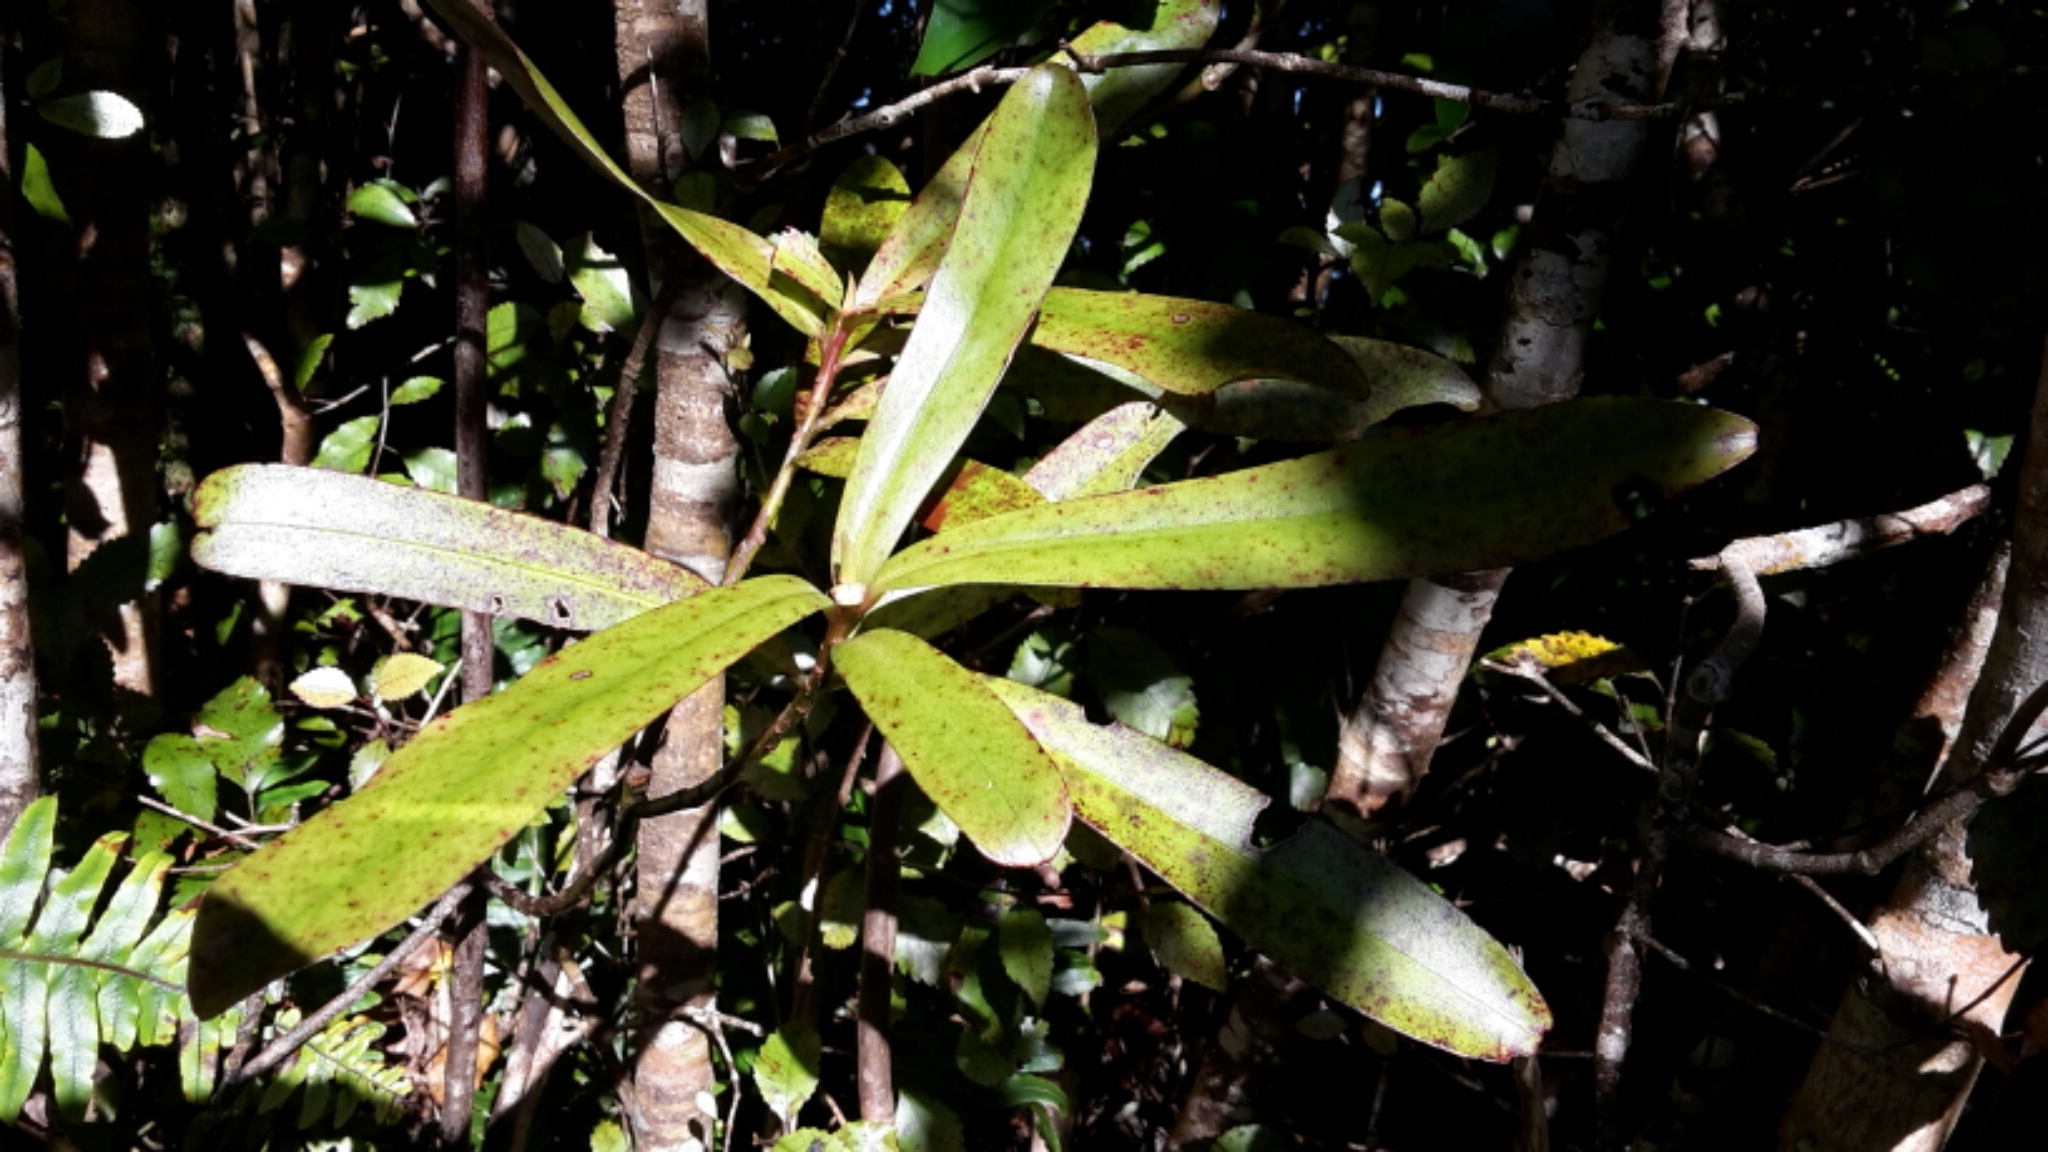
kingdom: Plantae
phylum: Tracheophyta
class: Magnoliopsida
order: Ericales
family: Primulaceae
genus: Myrsine
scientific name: Myrsine salicina
